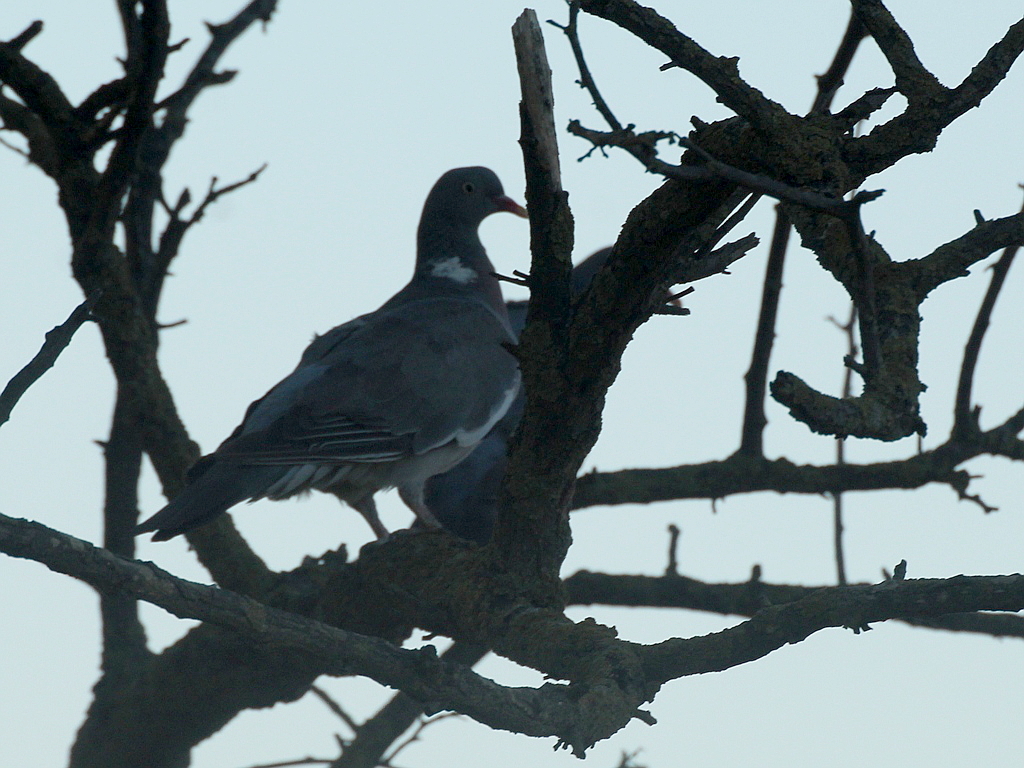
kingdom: Animalia
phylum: Chordata
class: Aves
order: Columbiformes
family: Columbidae
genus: Columba
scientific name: Columba palumbus
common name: Common wood pigeon
